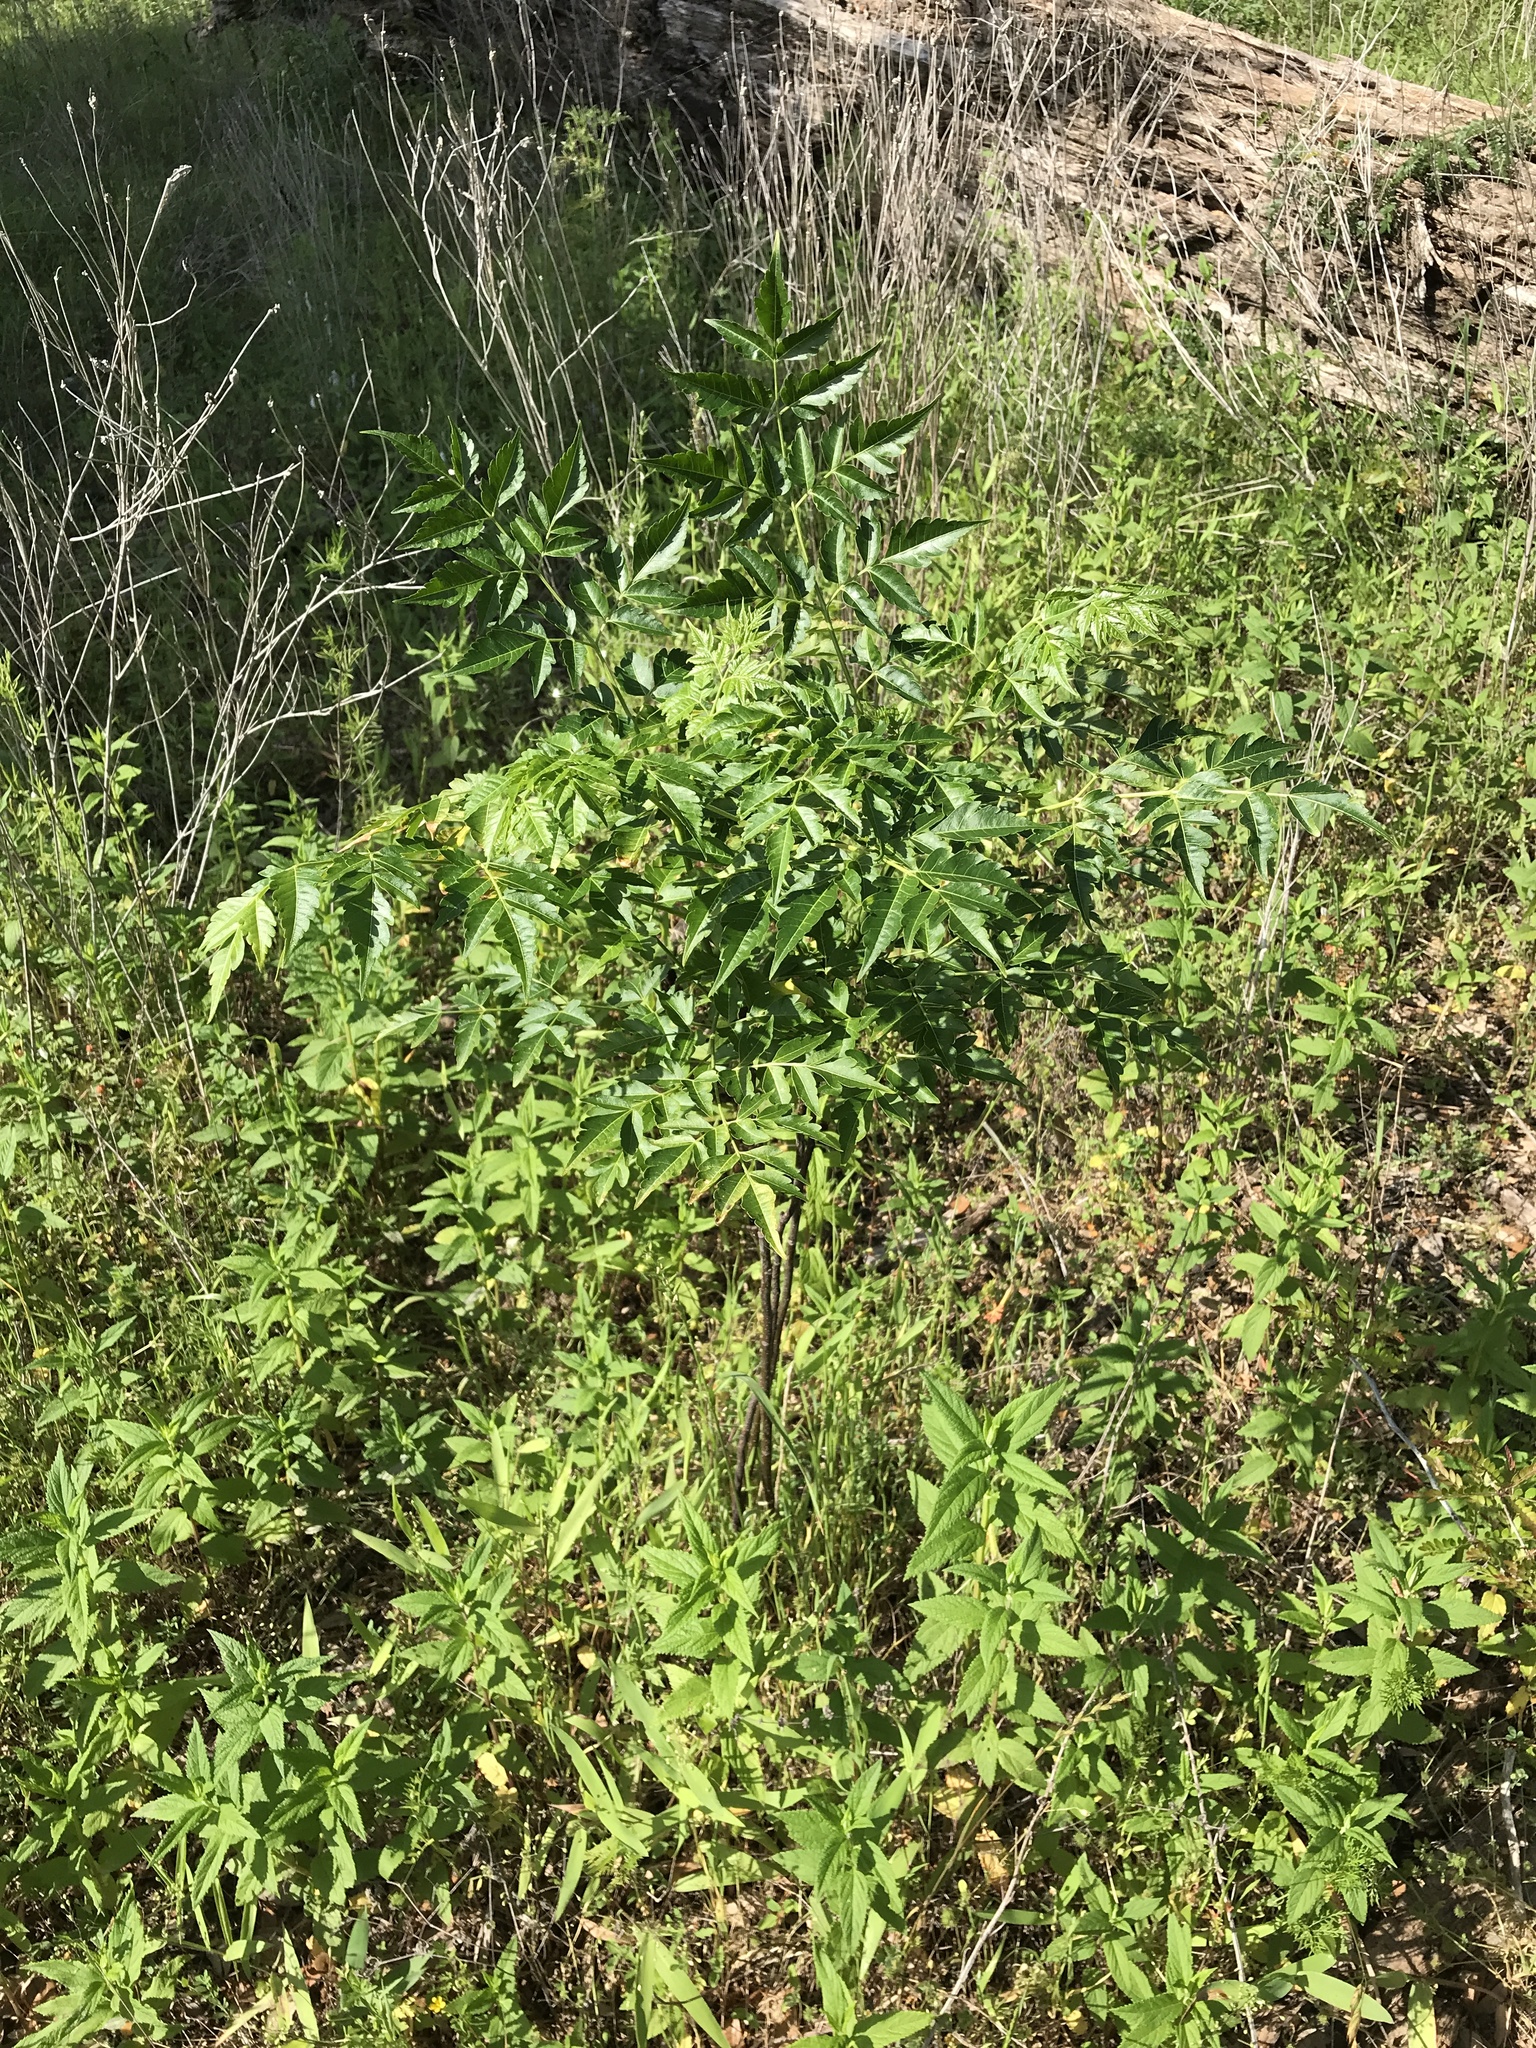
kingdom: Plantae
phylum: Tracheophyta
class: Magnoliopsida
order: Sapindales
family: Meliaceae
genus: Melia
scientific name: Melia azedarach
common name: Chinaberrytree
